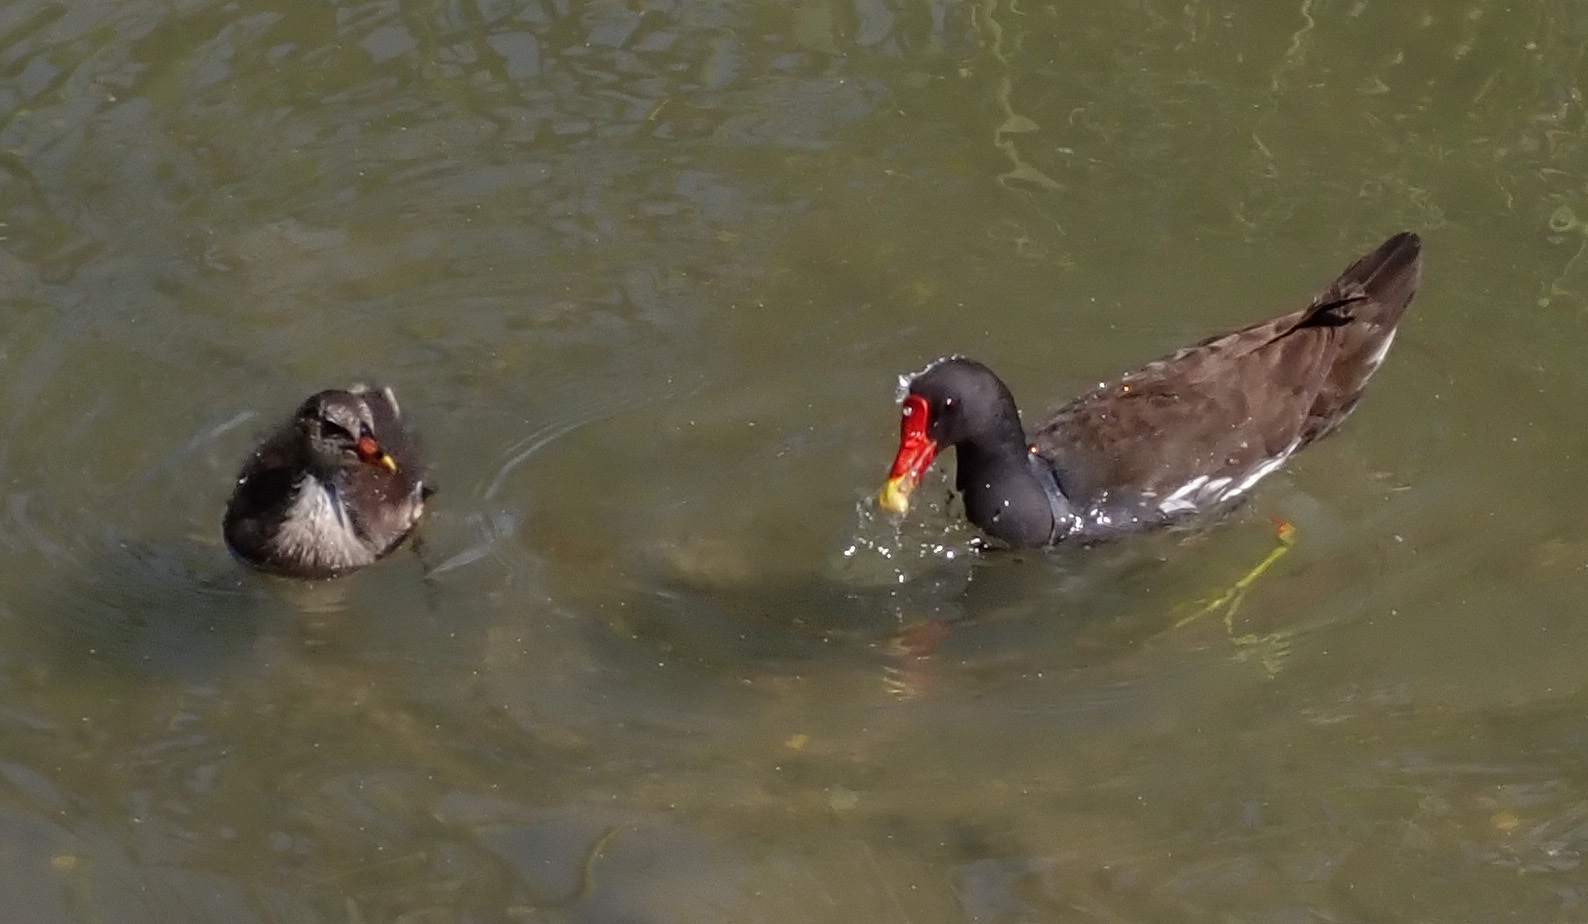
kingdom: Animalia
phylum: Chordata
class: Aves
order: Gruiformes
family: Rallidae
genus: Gallinula
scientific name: Gallinula chloropus
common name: Common moorhen
